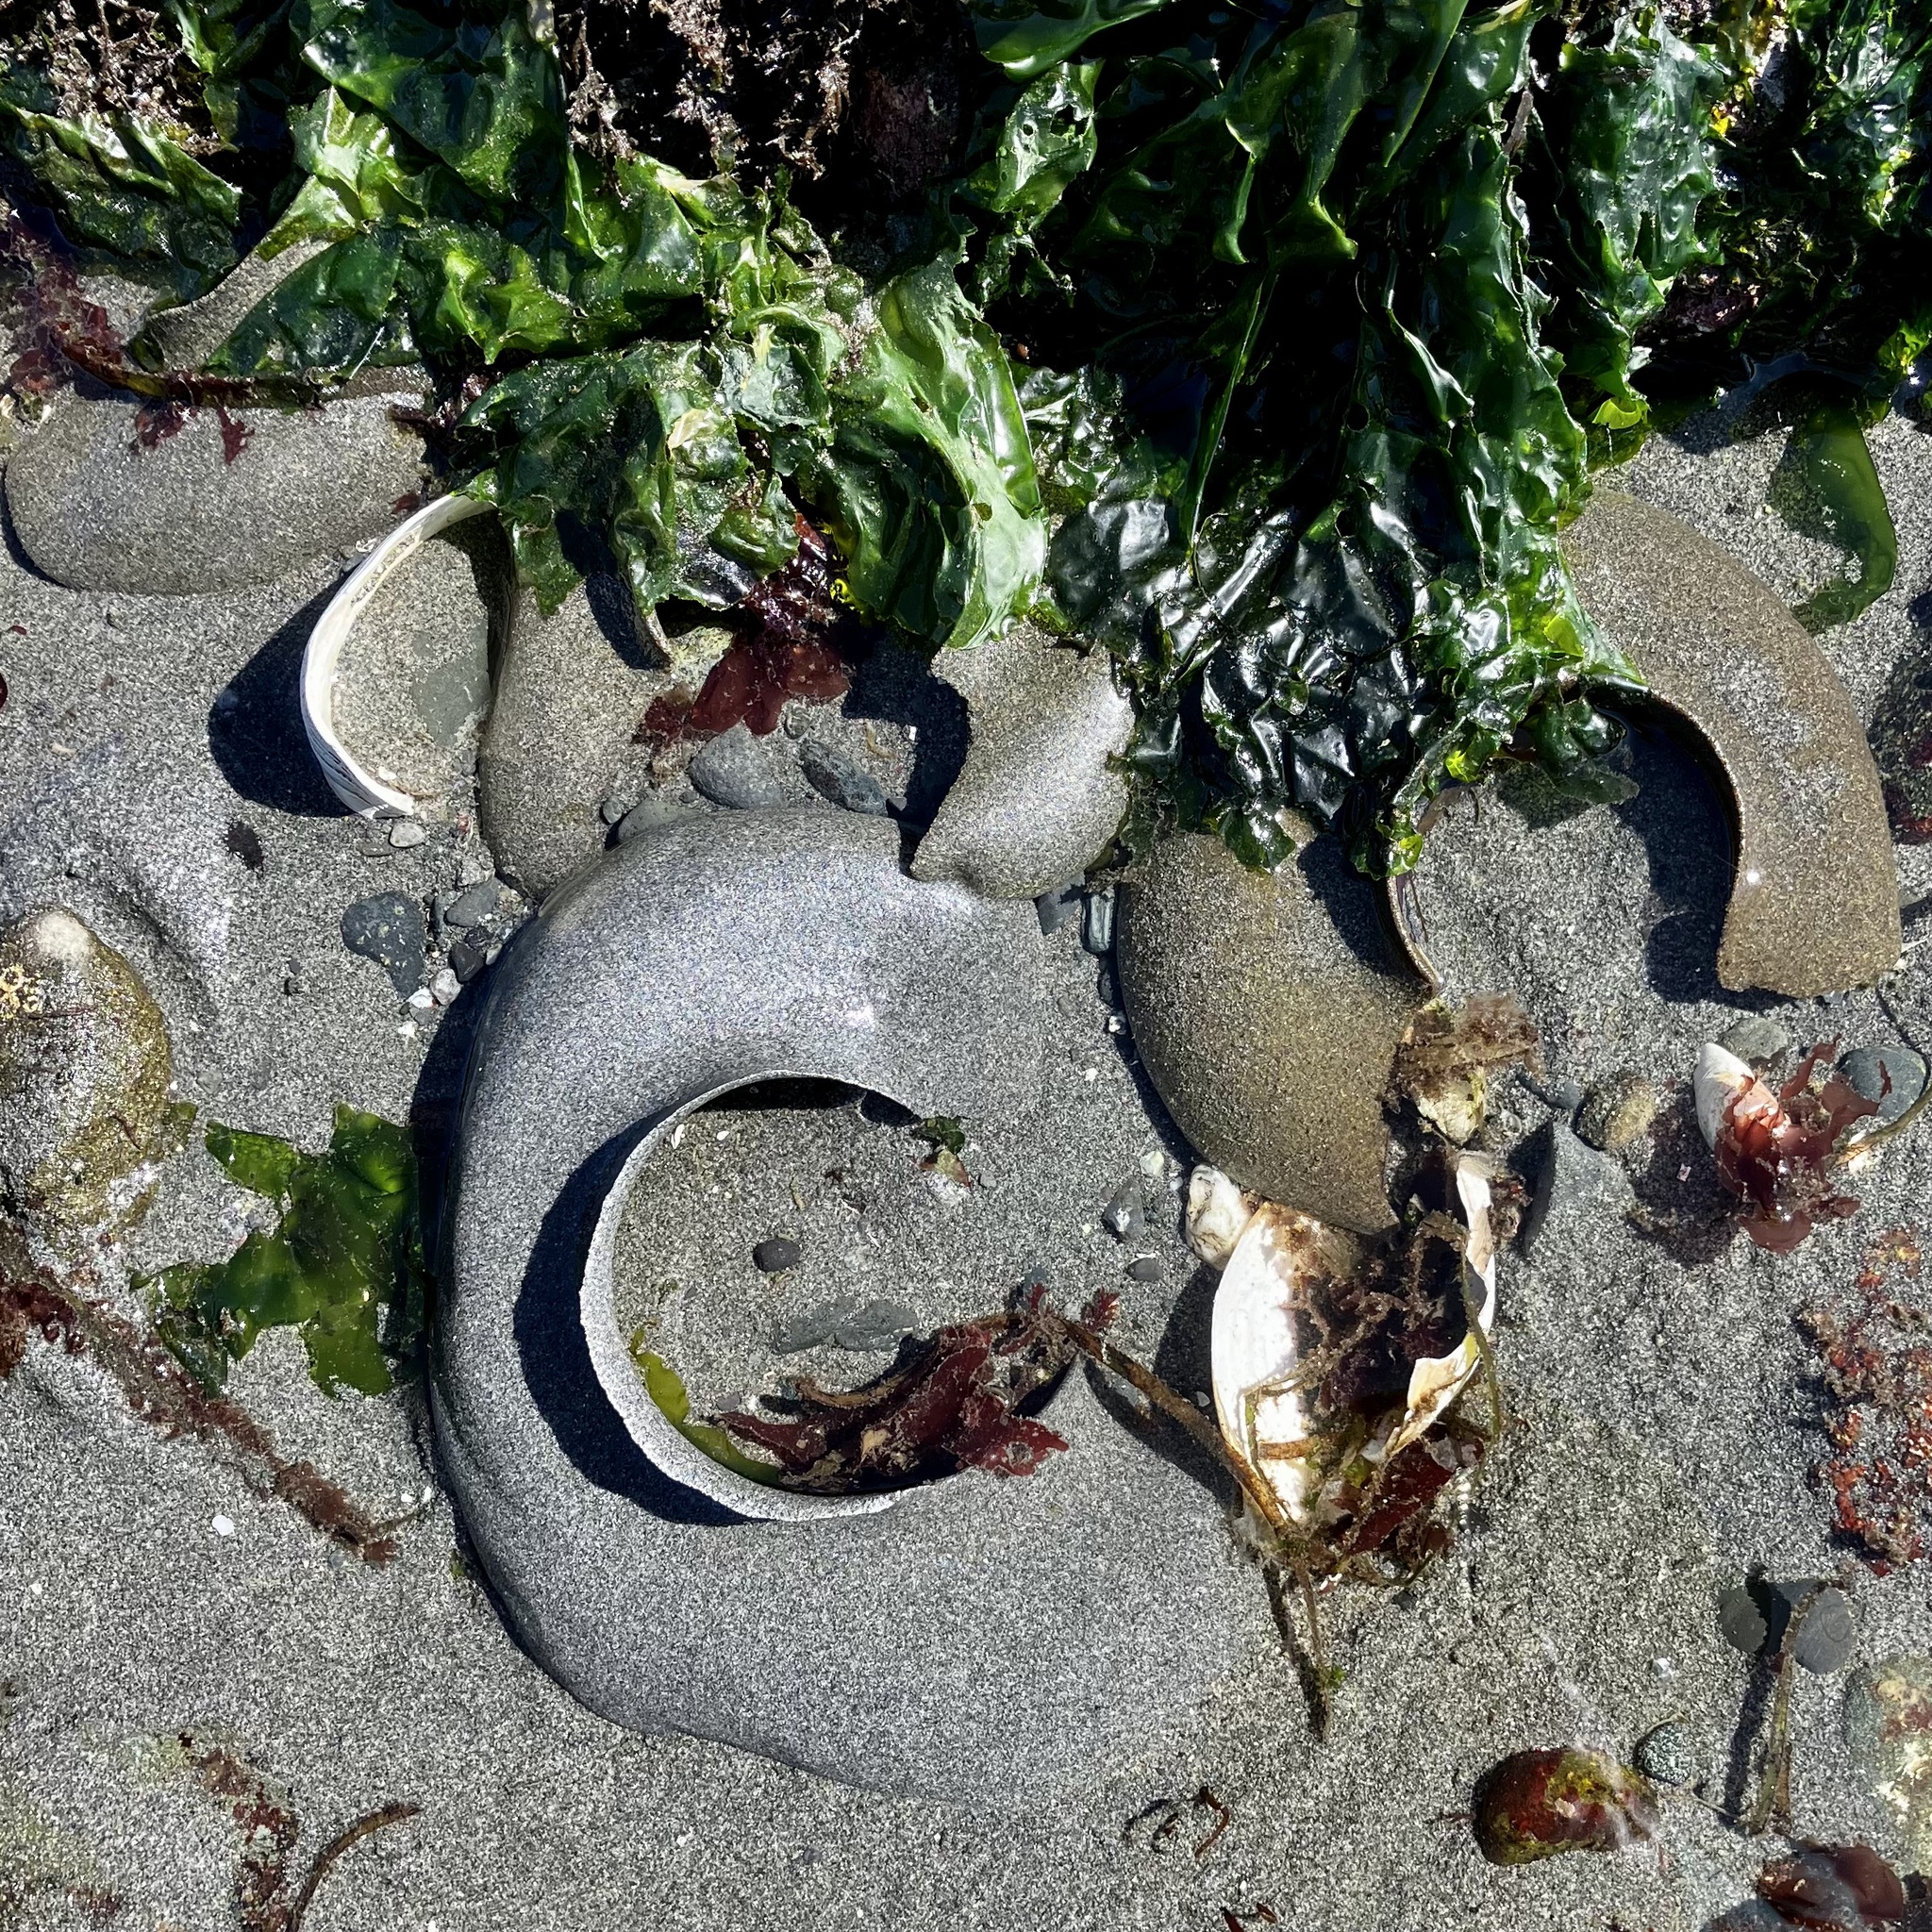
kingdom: Animalia
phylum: Mollusca
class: Gastropoda
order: Littorinimorpha
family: Naticidae
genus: Neverita
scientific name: Neverita lewisii
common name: Lewis' moonsnail
